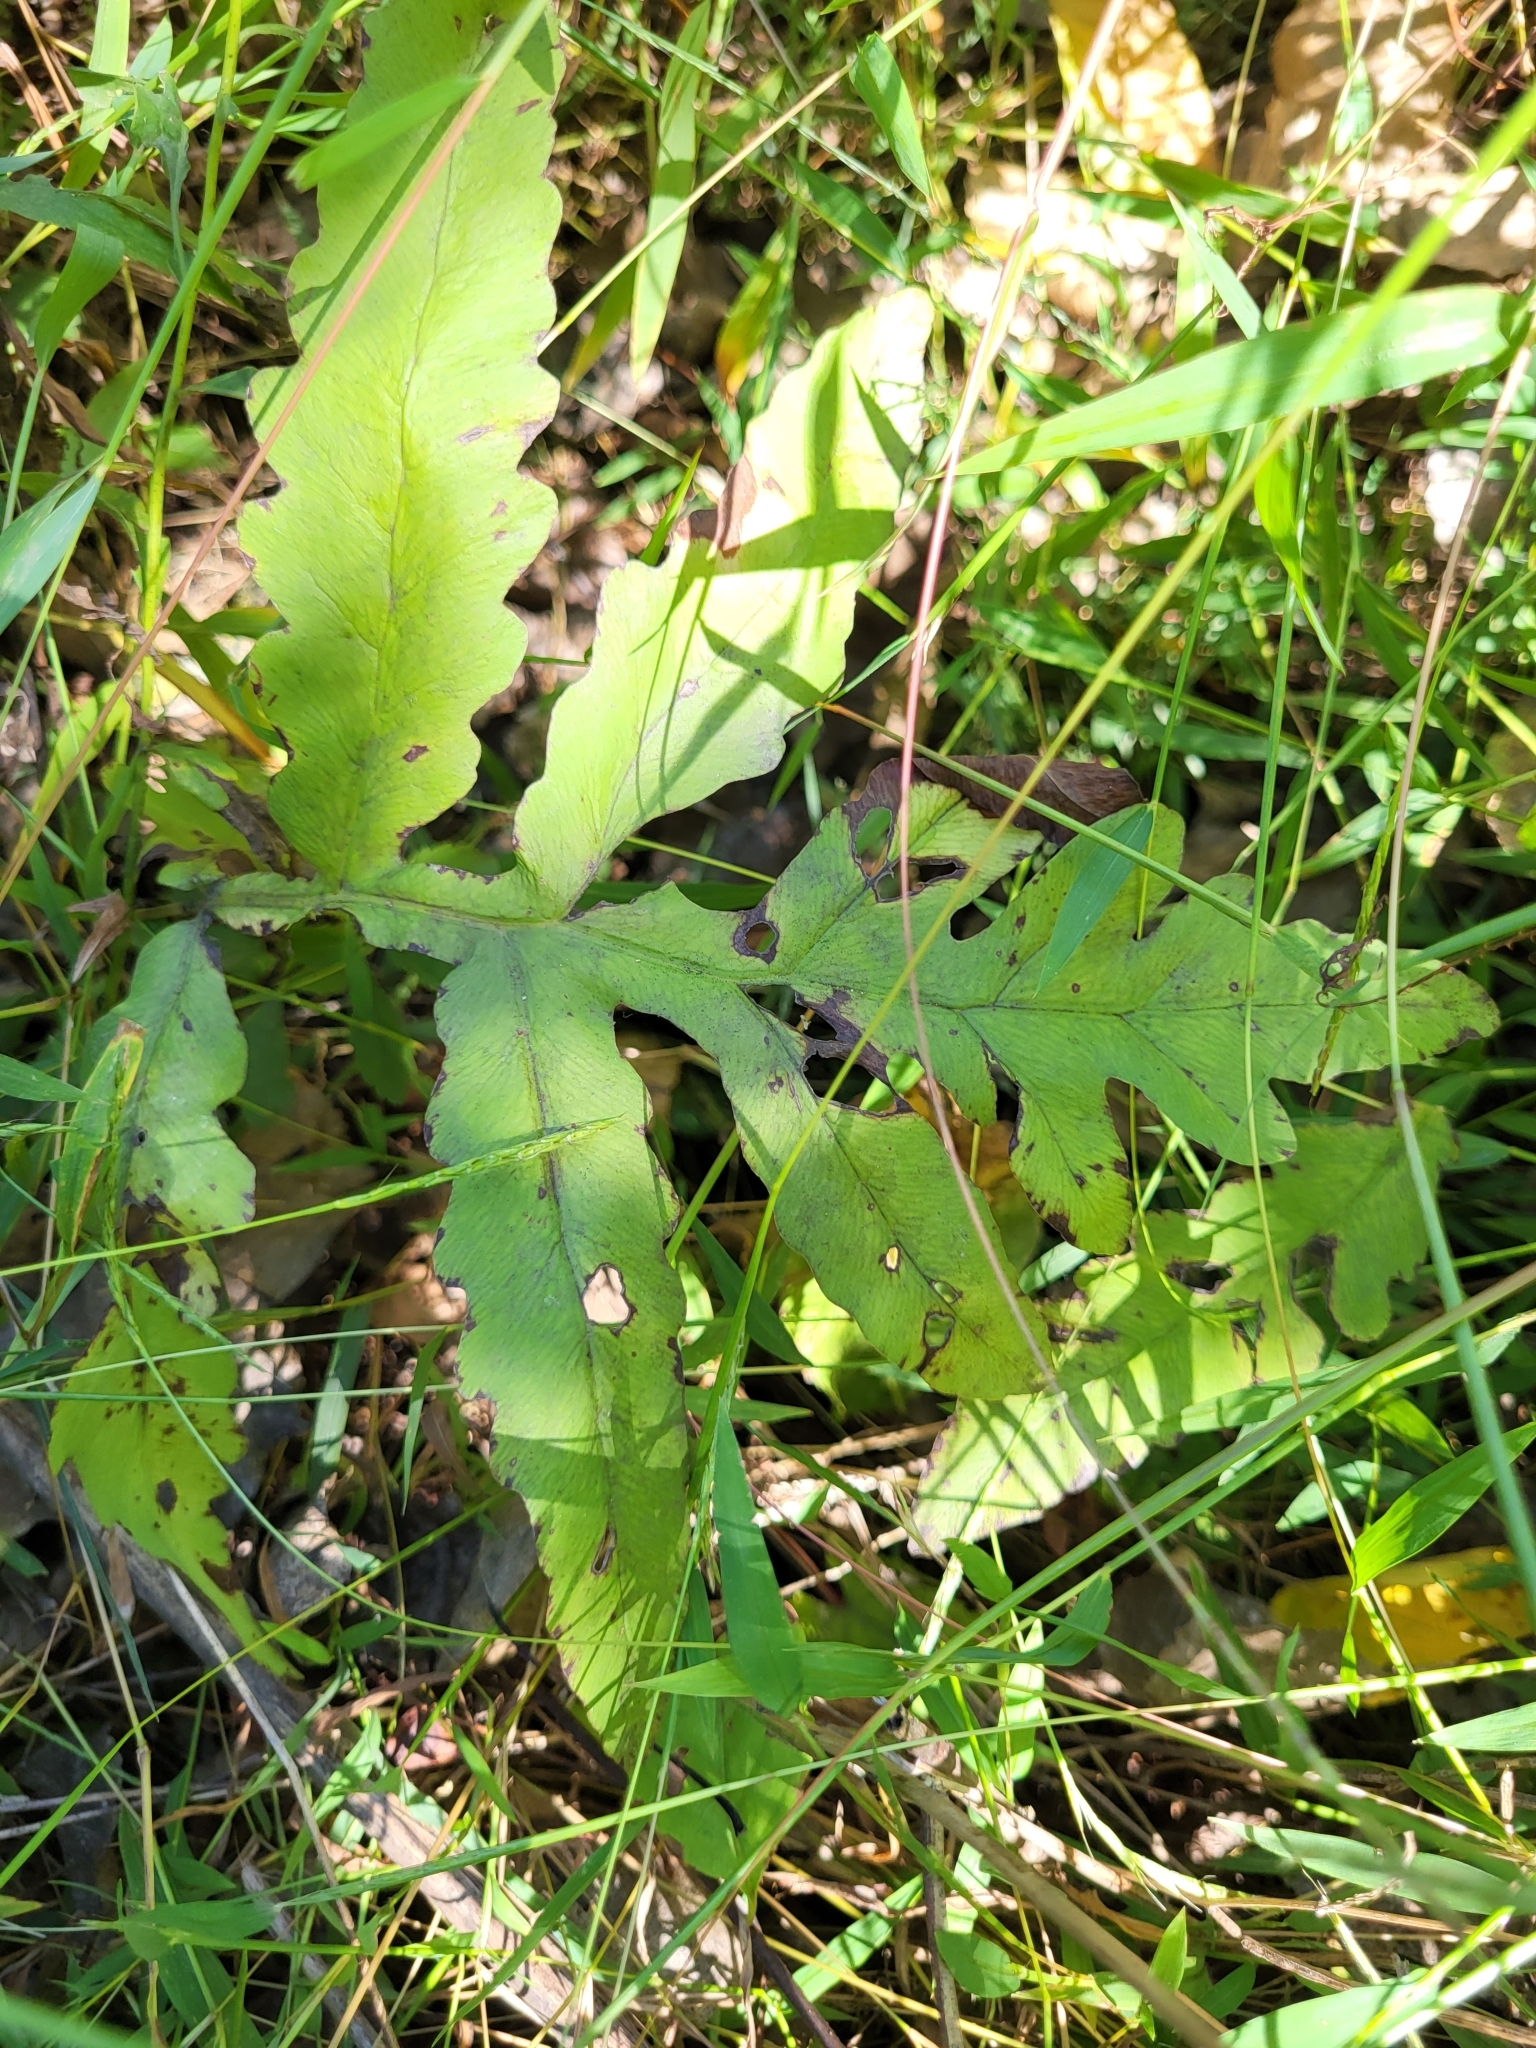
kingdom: Plantae
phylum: Tracheophyta
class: Polypodiopsida
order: Polypodiales
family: Onocleaceae
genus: Onoclea
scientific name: Onoclea sensibilis
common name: Sensitive fern
